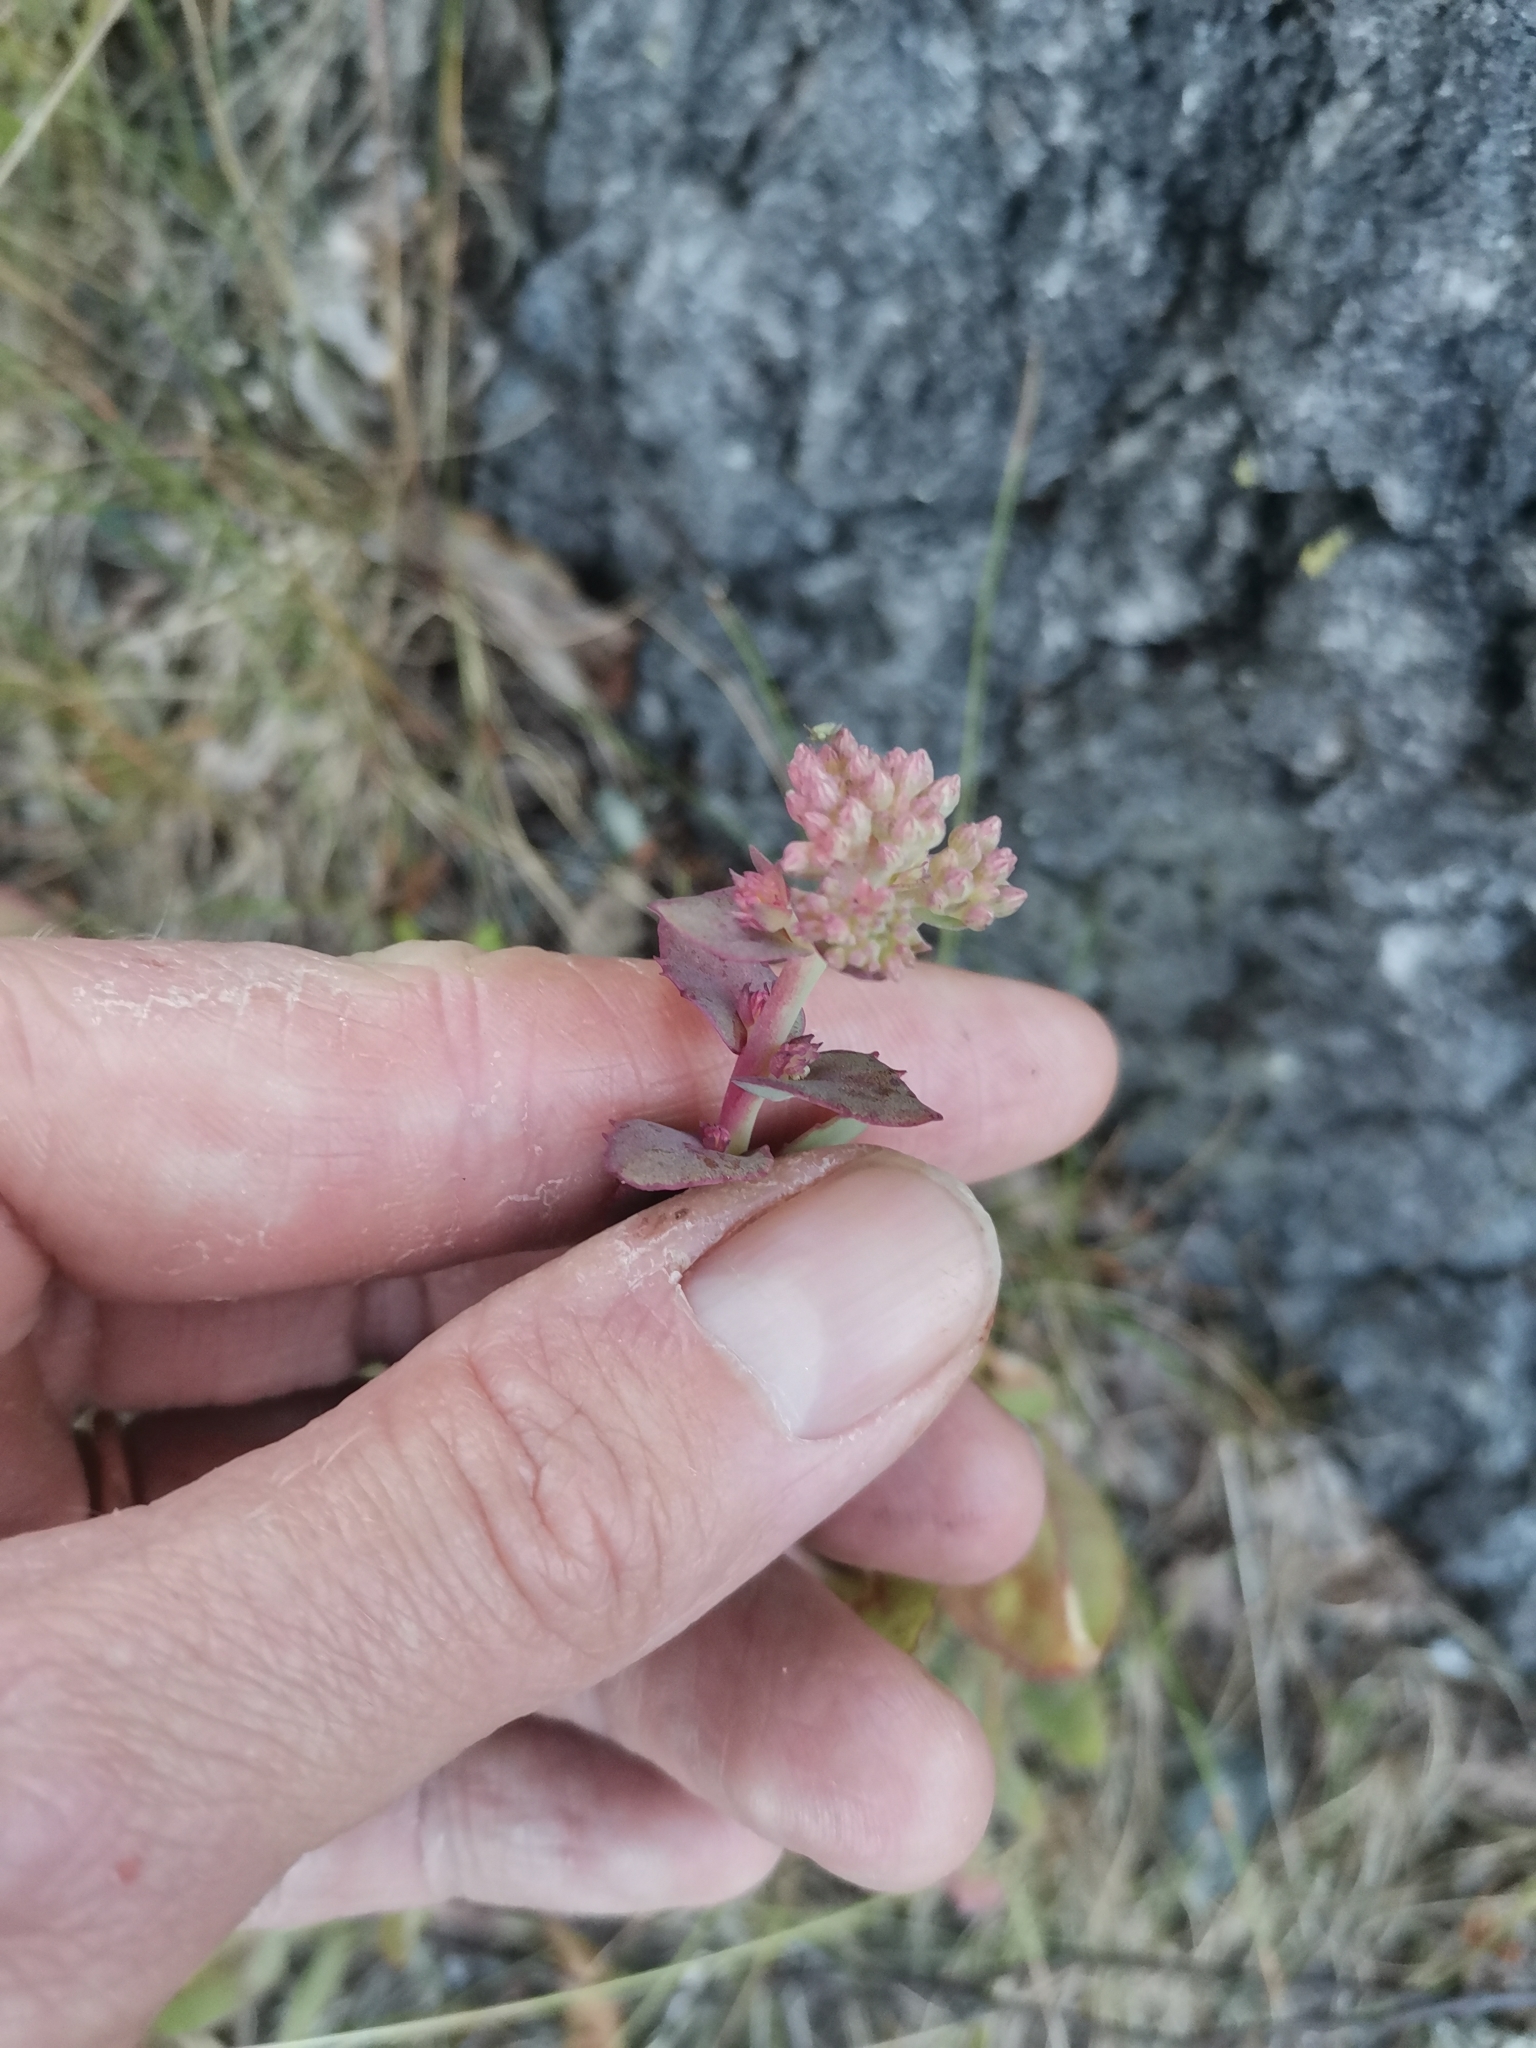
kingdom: Plantae
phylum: Tracheophyta
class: Magnoliopsida
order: Saxifragales
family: Crassulaceae
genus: Hylotelephium
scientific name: Hylotelephium maximum
